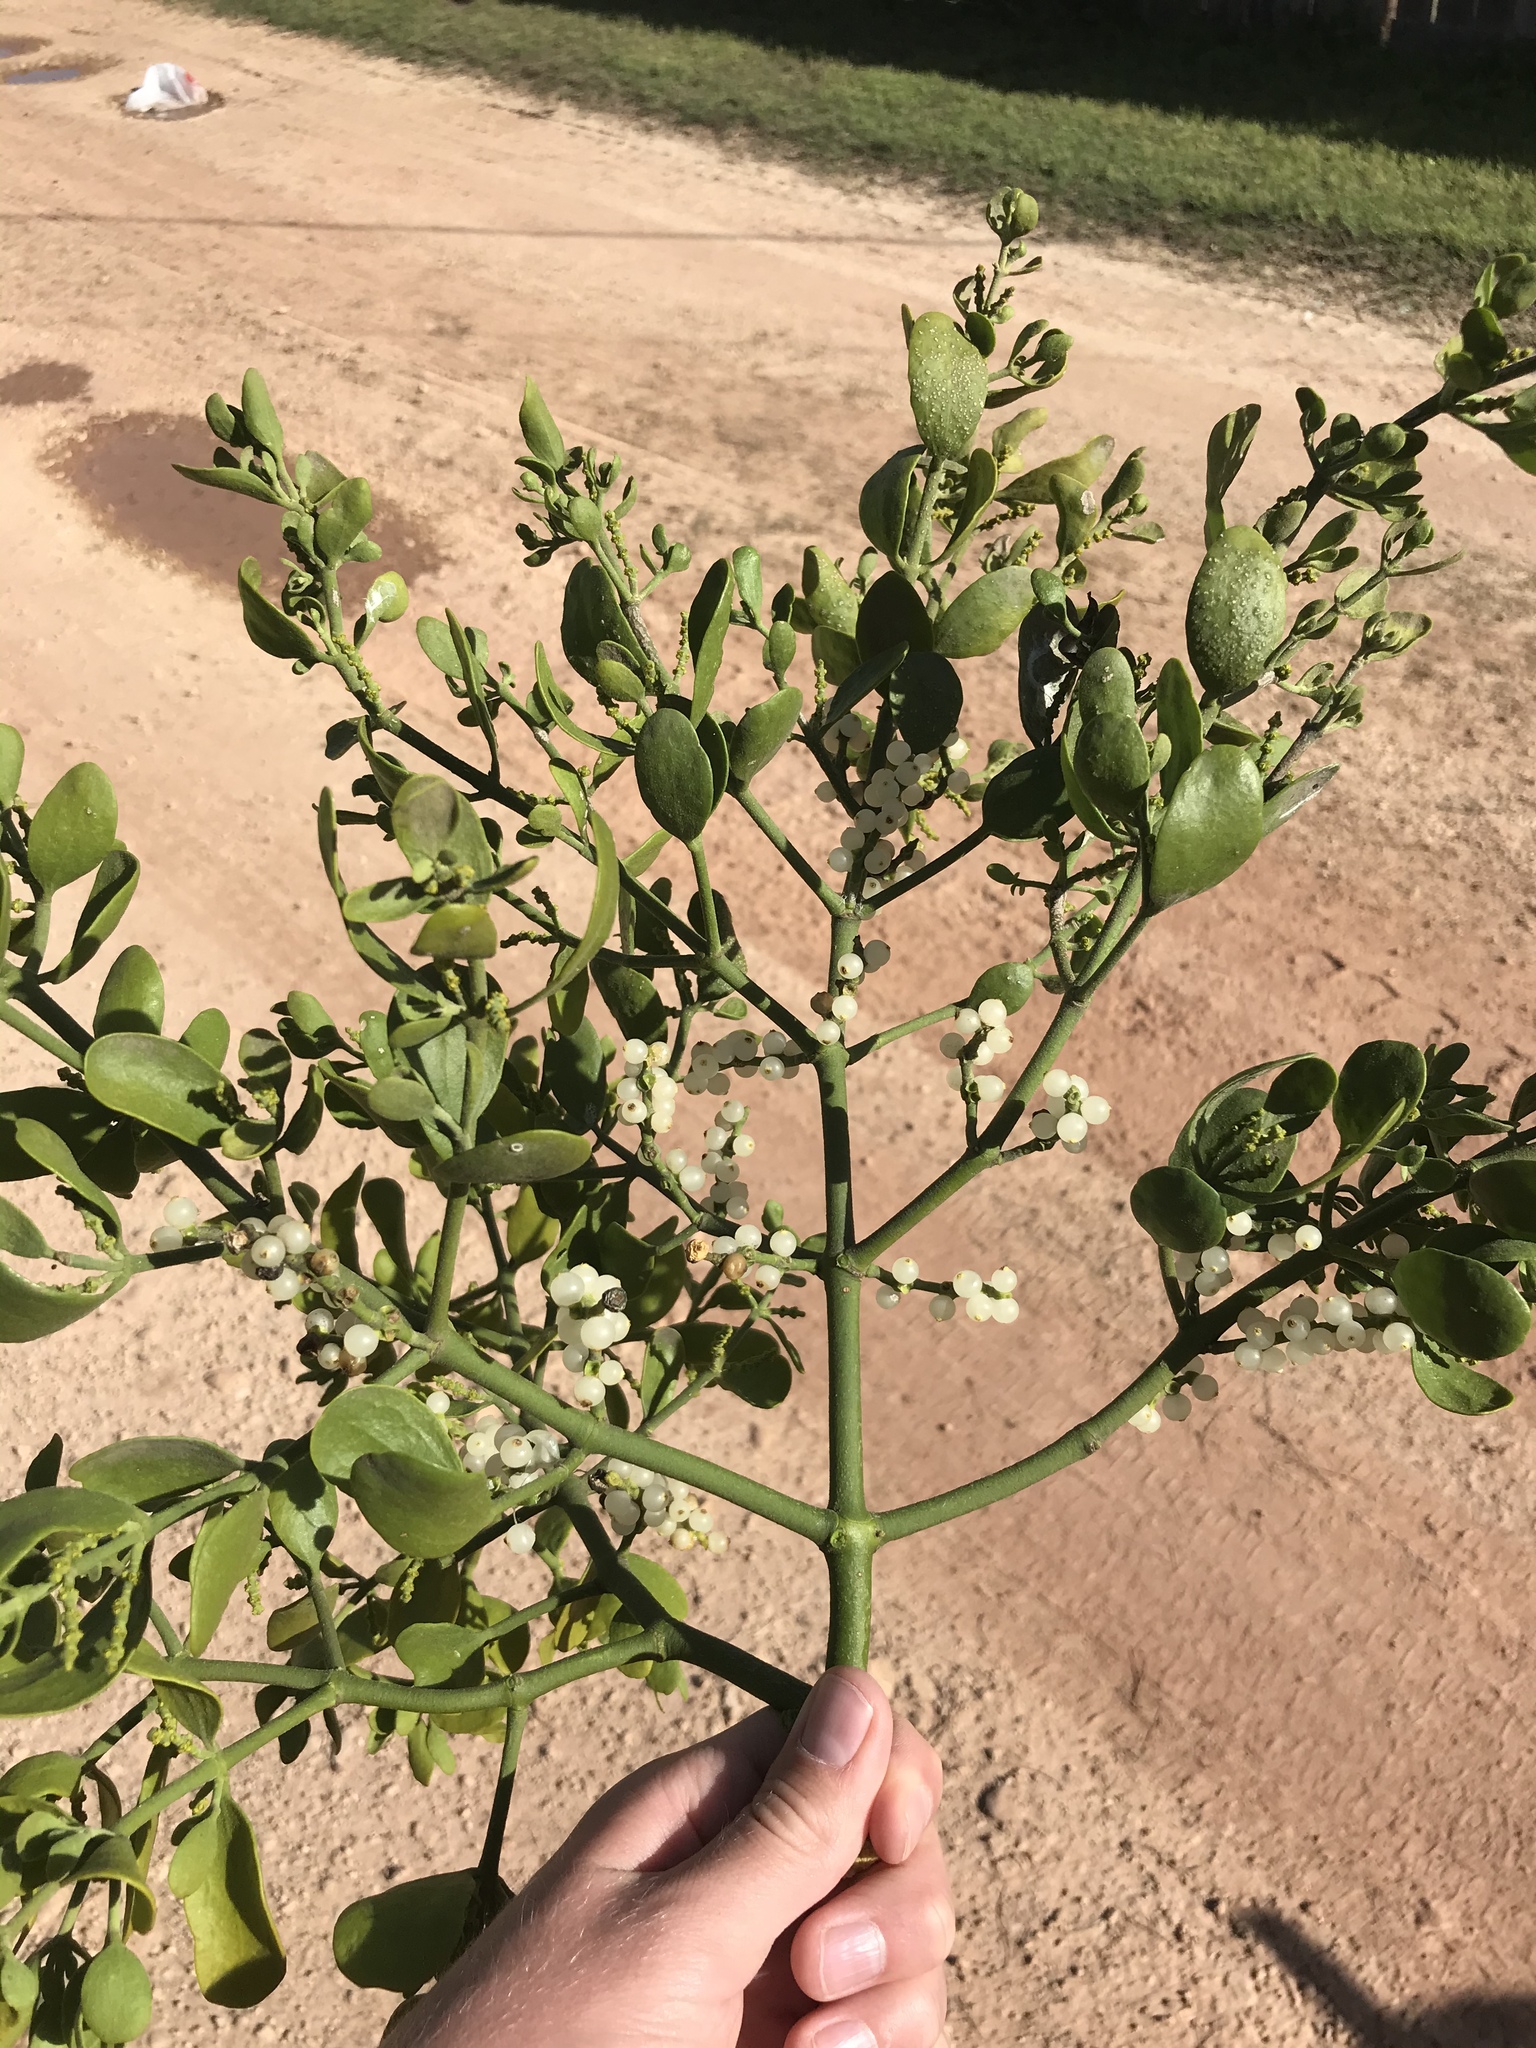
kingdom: Plantae
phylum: Tracheophyta
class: Magnoliopsida
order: Santalales
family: Viscaceae
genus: Phoradendron
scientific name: Phoradendron leucarpum
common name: Pacific mistletoe
